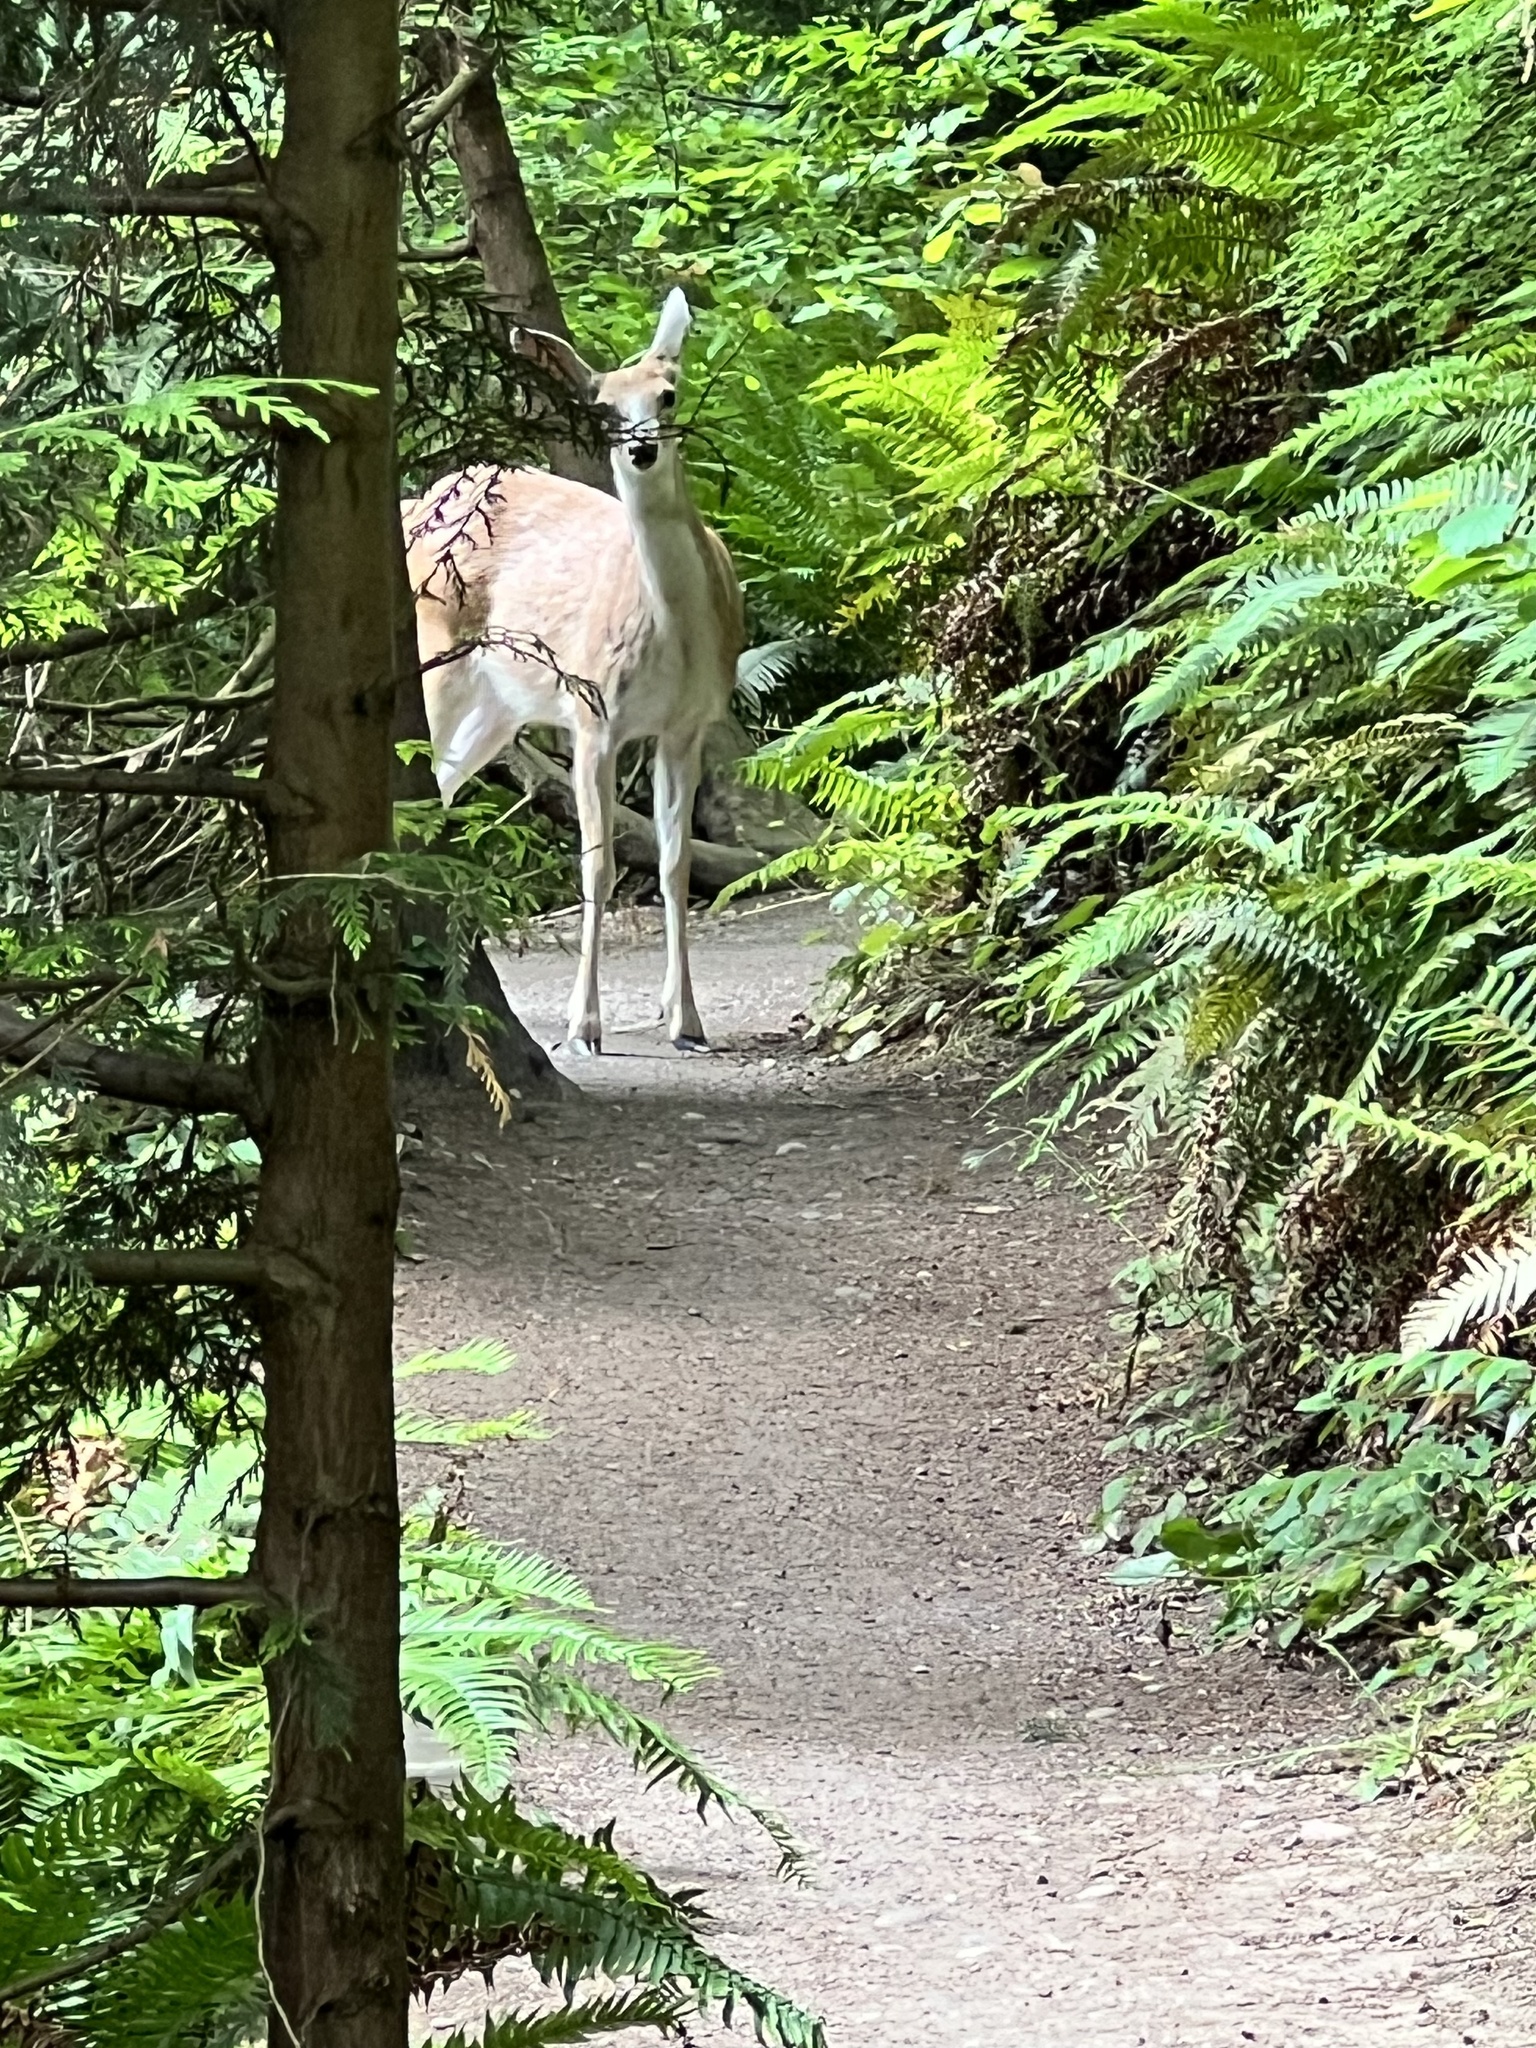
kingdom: Animalia
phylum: Chordata
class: Mammalia
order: Artiodactyla
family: Cervidae
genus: Odocoileus
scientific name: Odocoileus hemionus
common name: Mule deer
